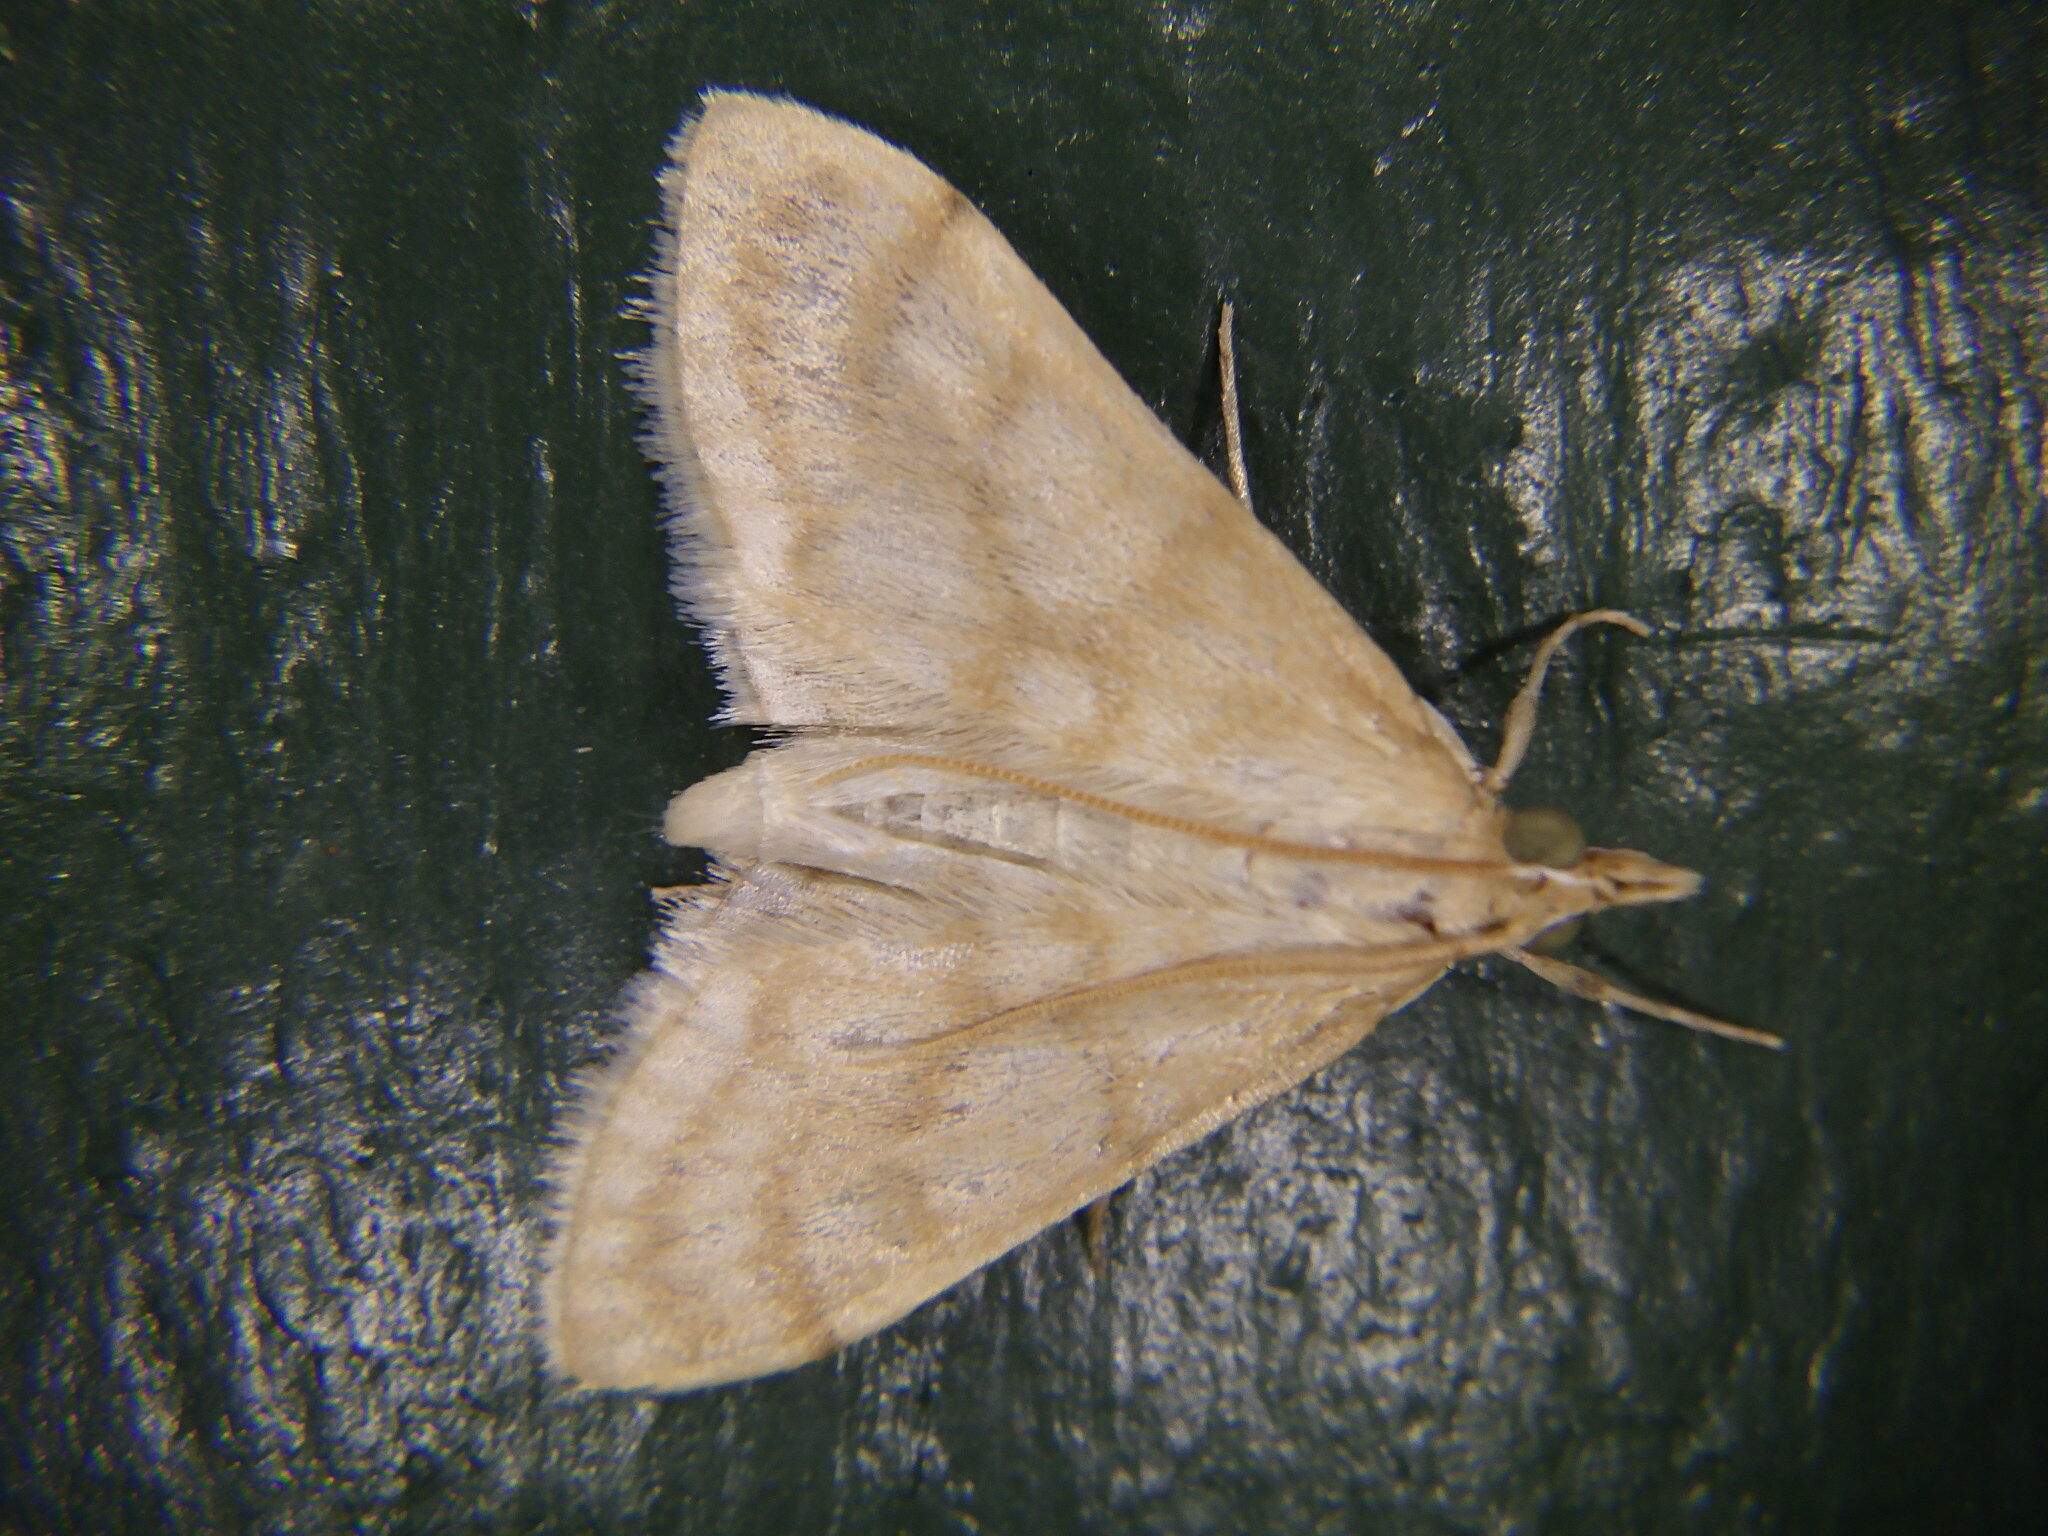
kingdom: Animalia
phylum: Arthropoda
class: Insecta
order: Lepidoptera
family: Crambidae
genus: Paracorsia
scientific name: Paracorsia repandalis
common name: Mullein moth
